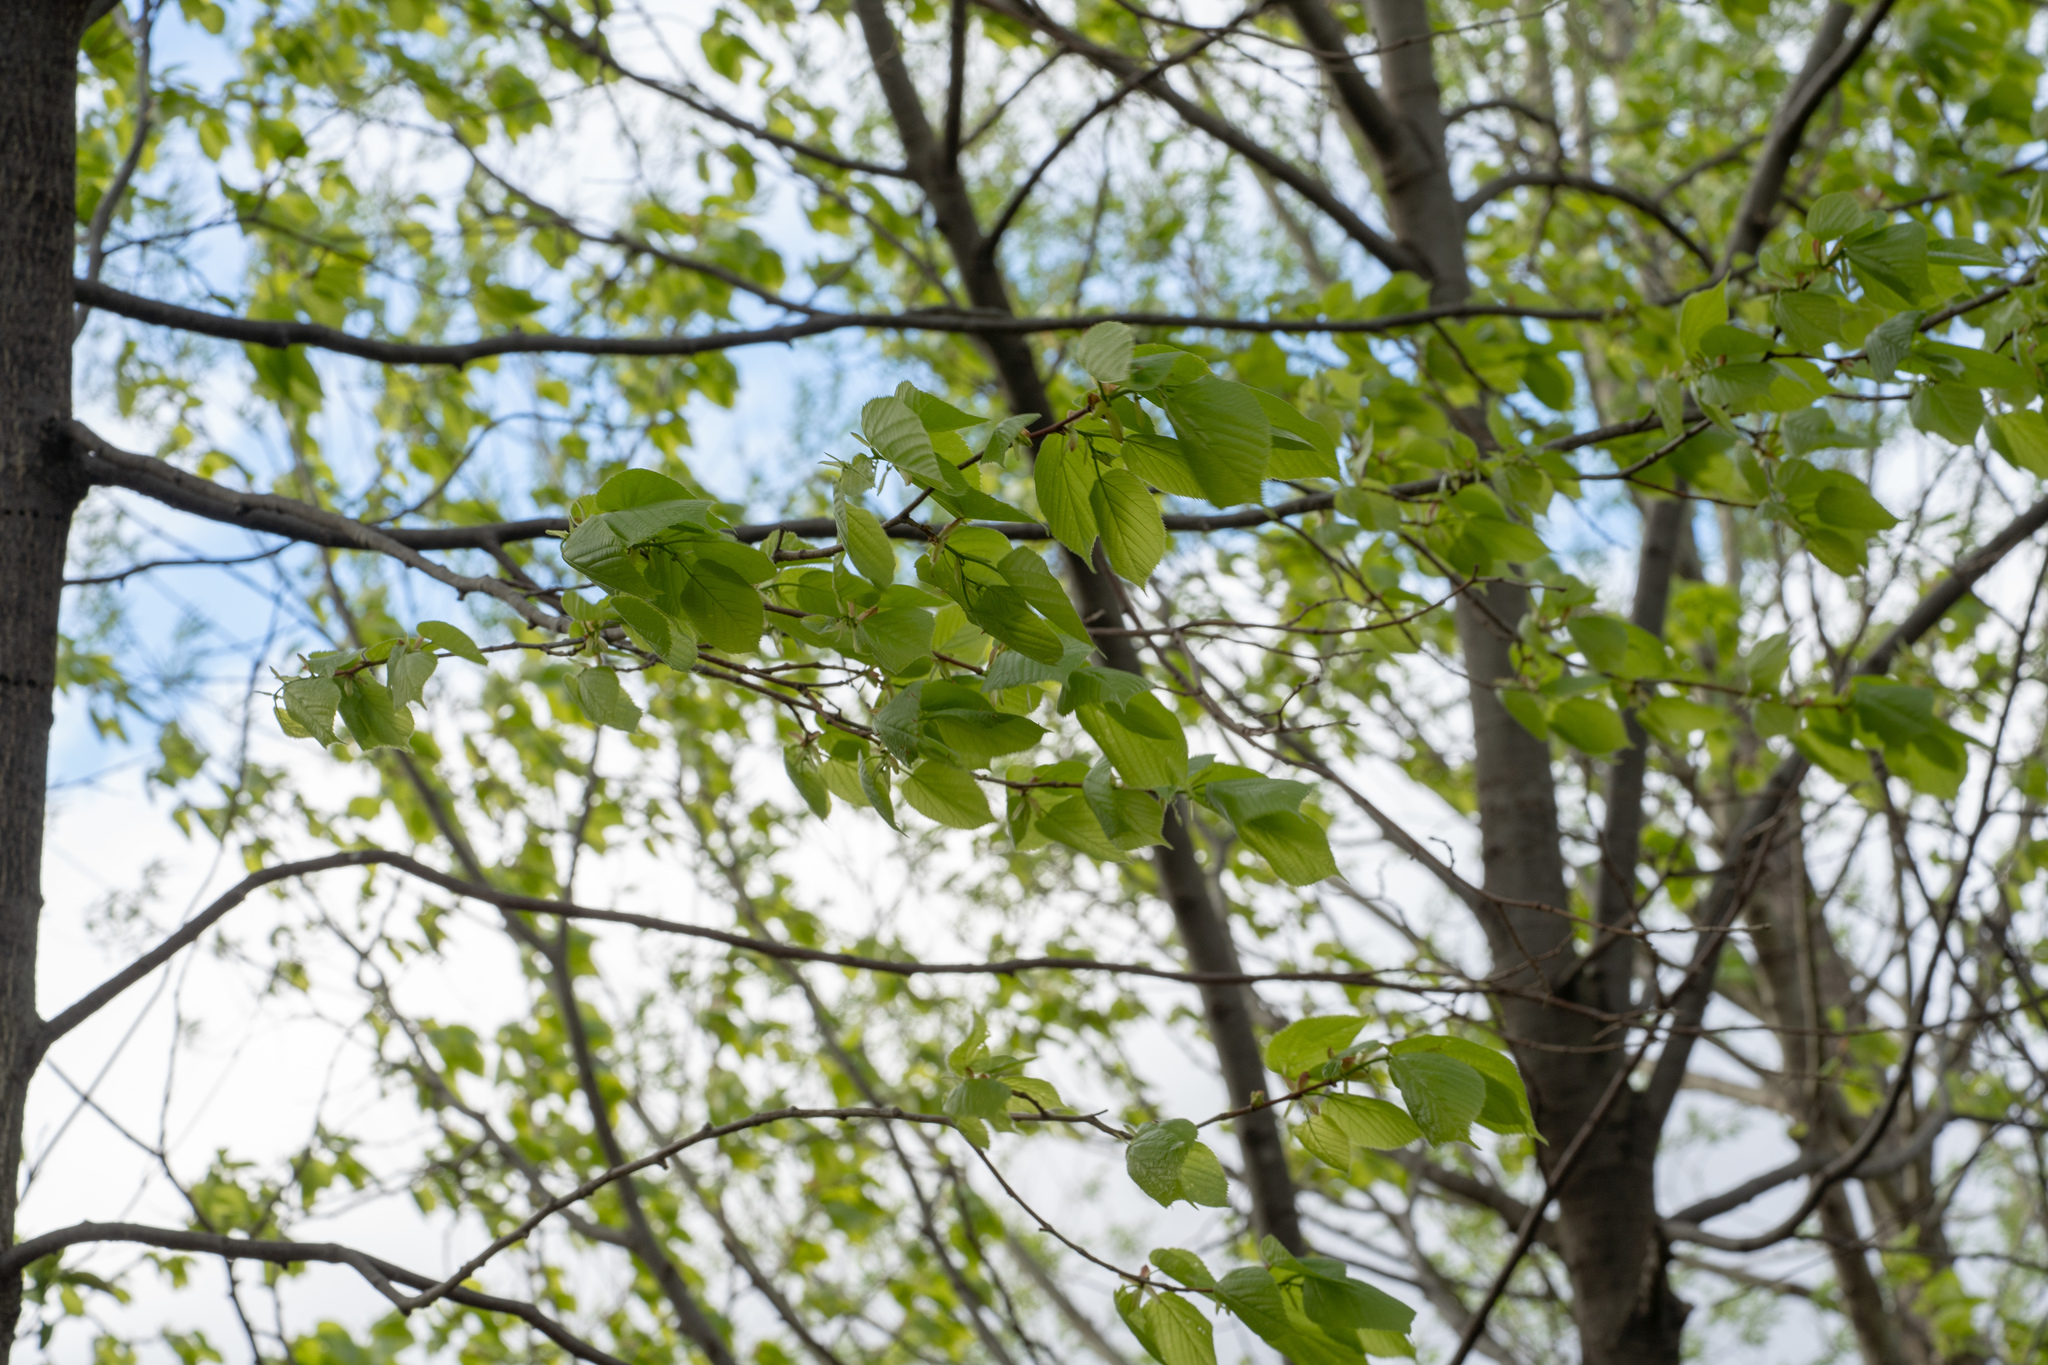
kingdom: Plantae
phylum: Tracheophyta
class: Magnoliopsida
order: Malvales
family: Malvaceae
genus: Tilia
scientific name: Tilia americana
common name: Basswood
